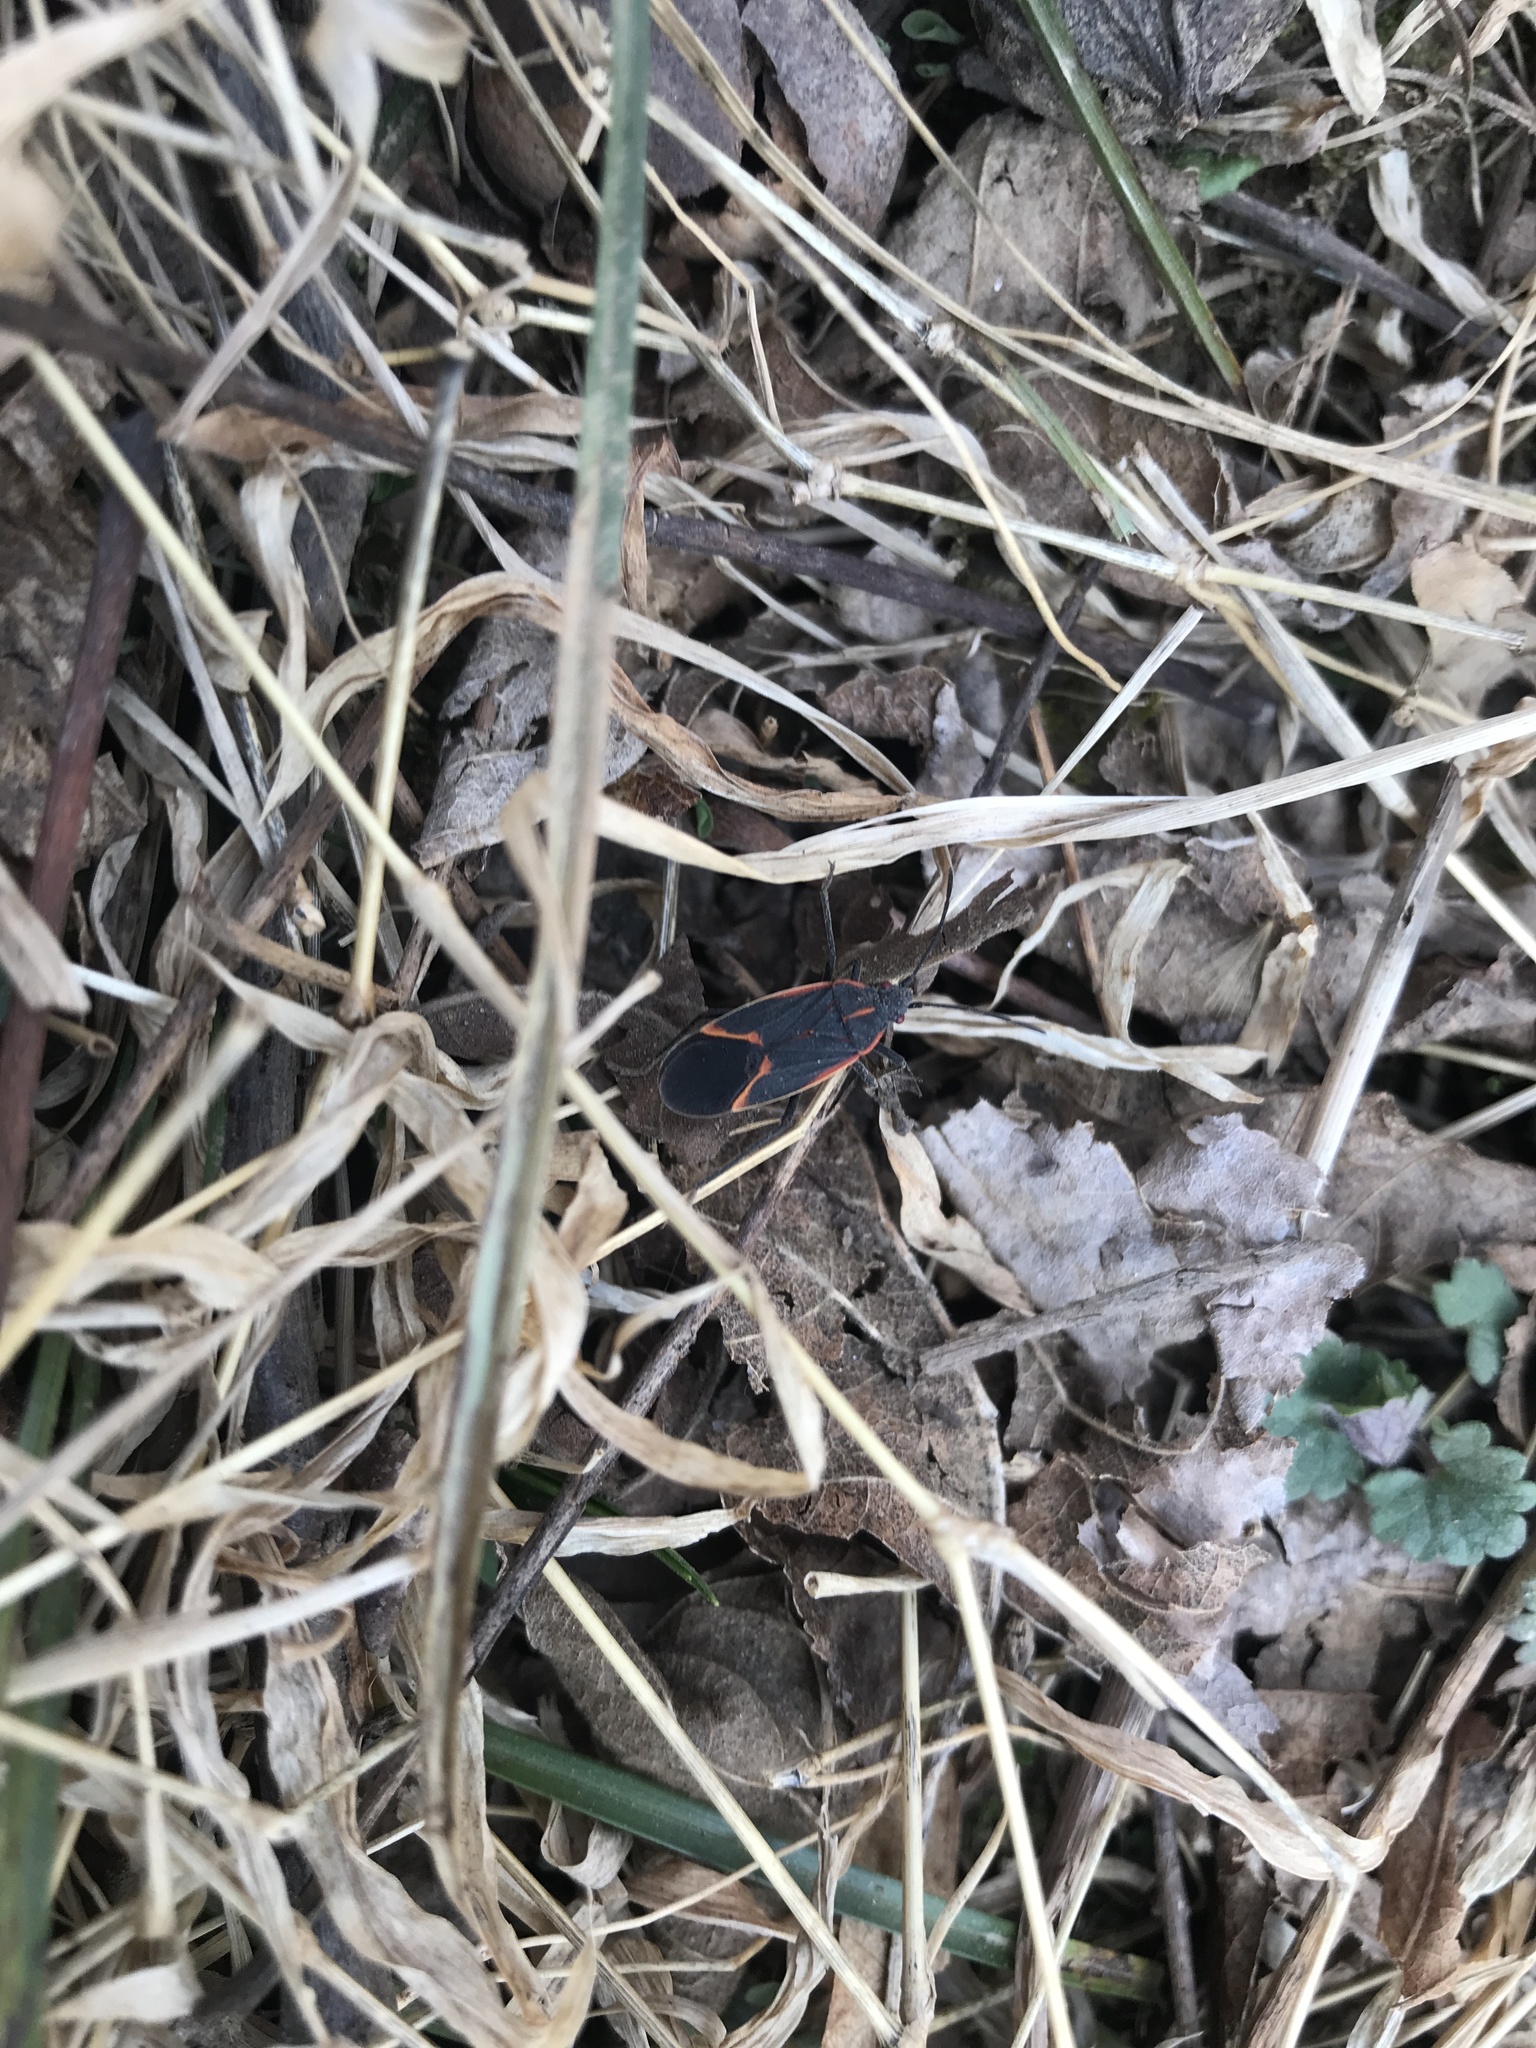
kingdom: Animalia
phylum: Arthropoda
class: Insecta
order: Hemiptera
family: Rhopalidae
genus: Boisea
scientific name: Boisea trivittata
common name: Boxelder bug
